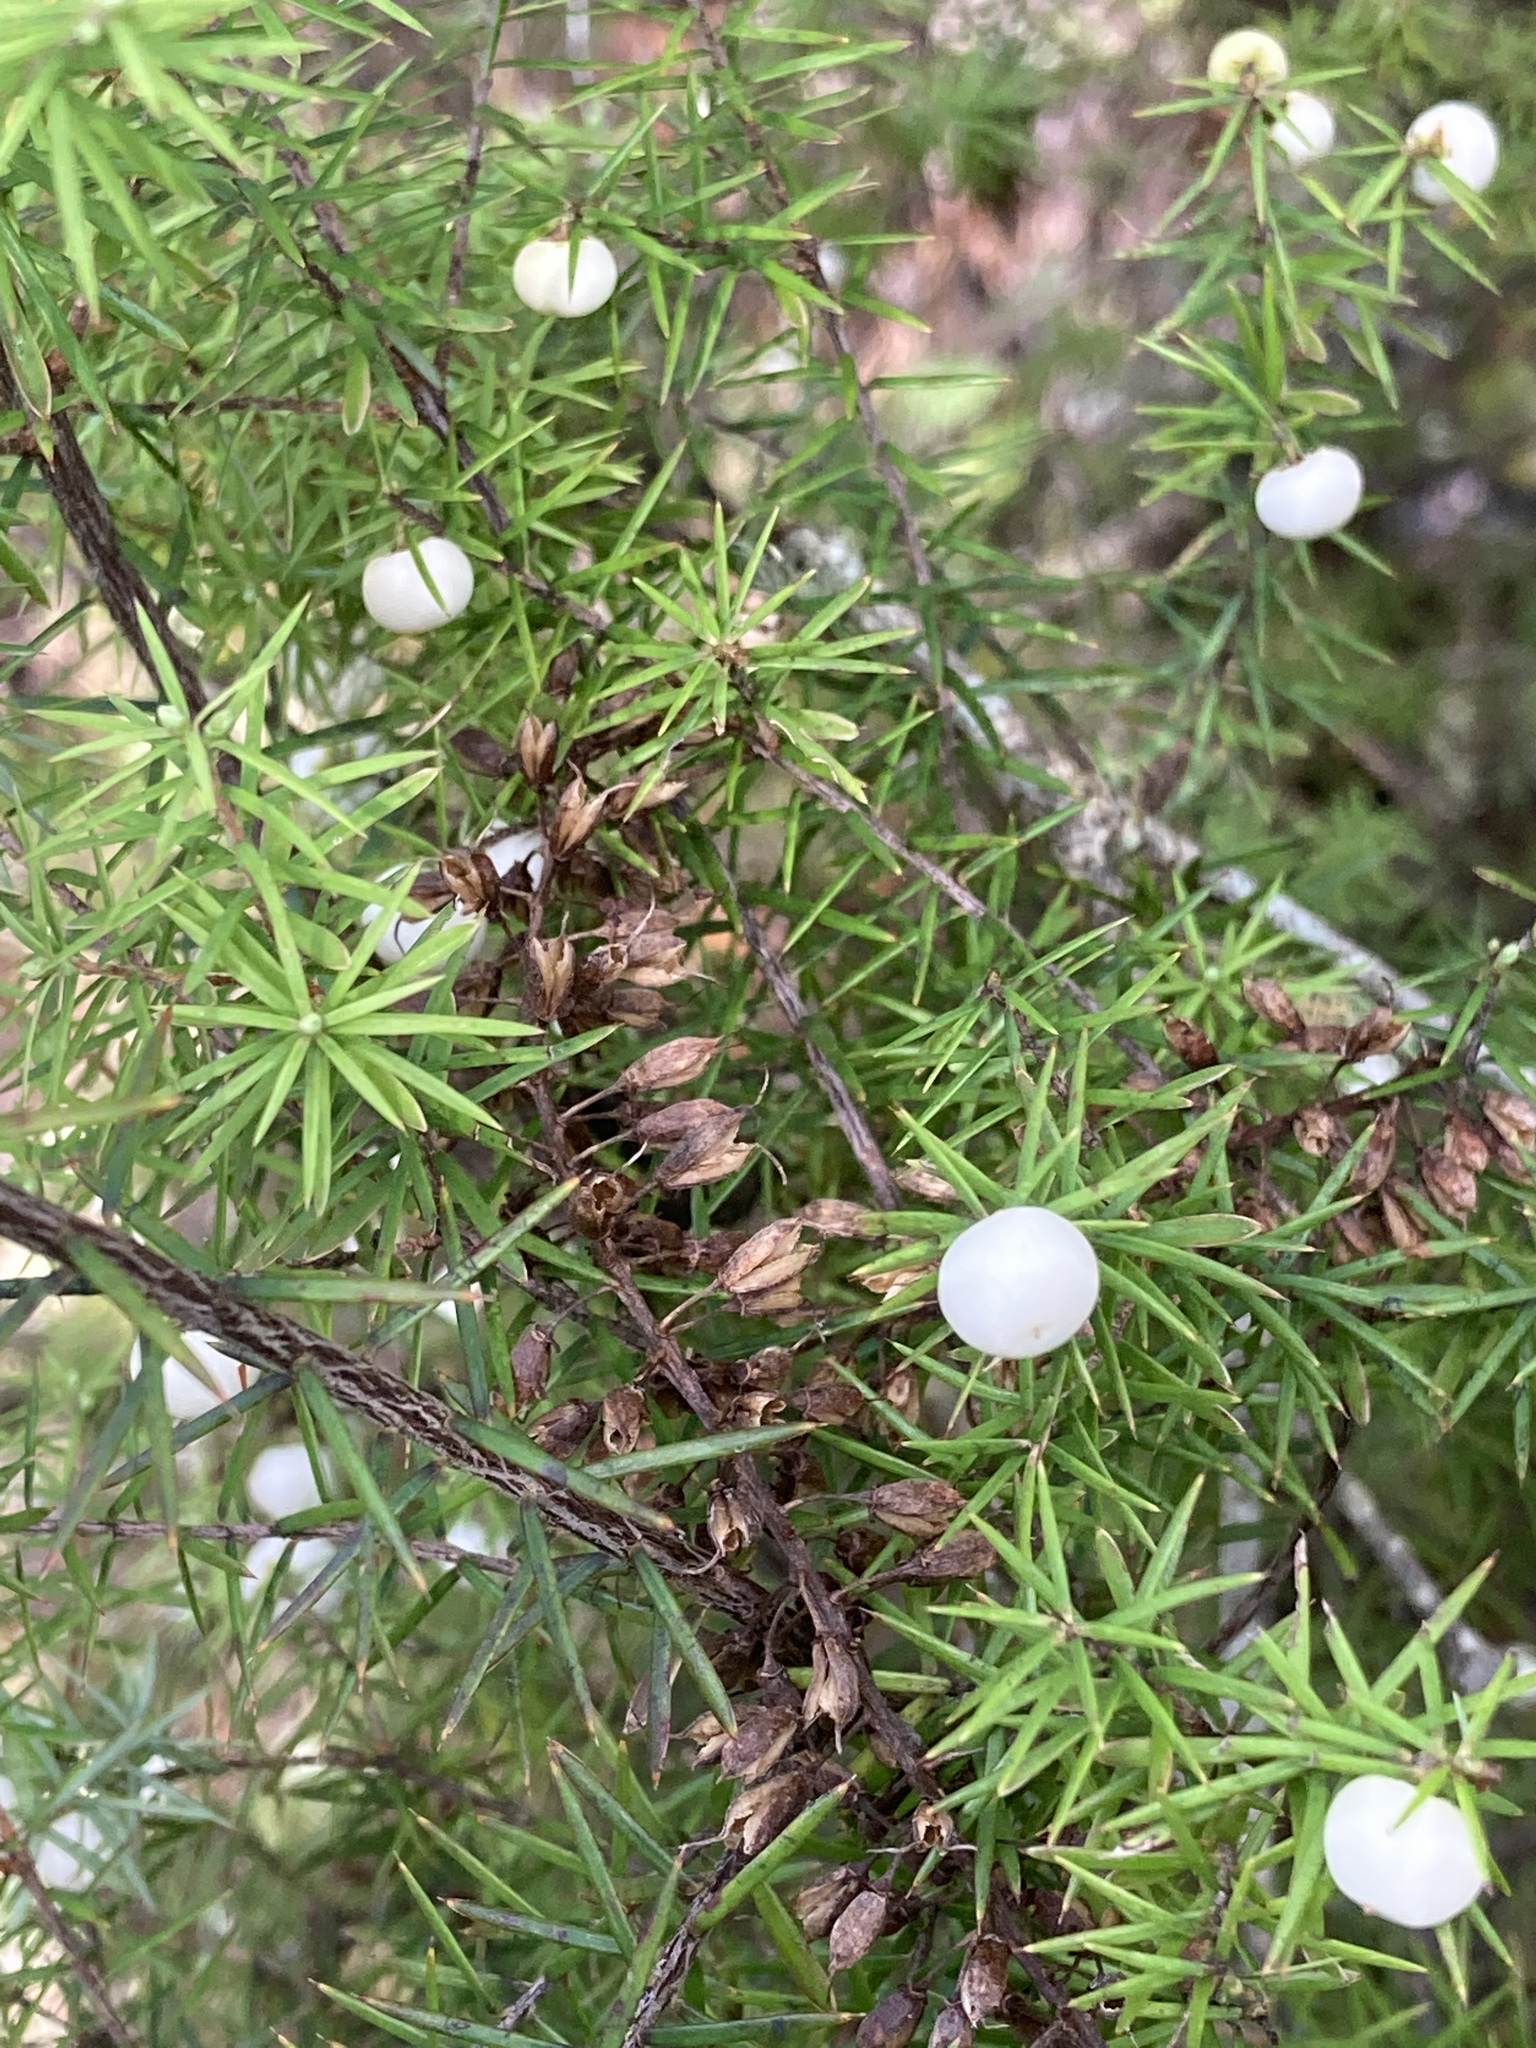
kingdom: Plantae
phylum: Tracheophyta
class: Magnoliopsida
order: Ericales
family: Ericaceae
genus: Leptecophylla
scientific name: Leptecophylla juniperina
